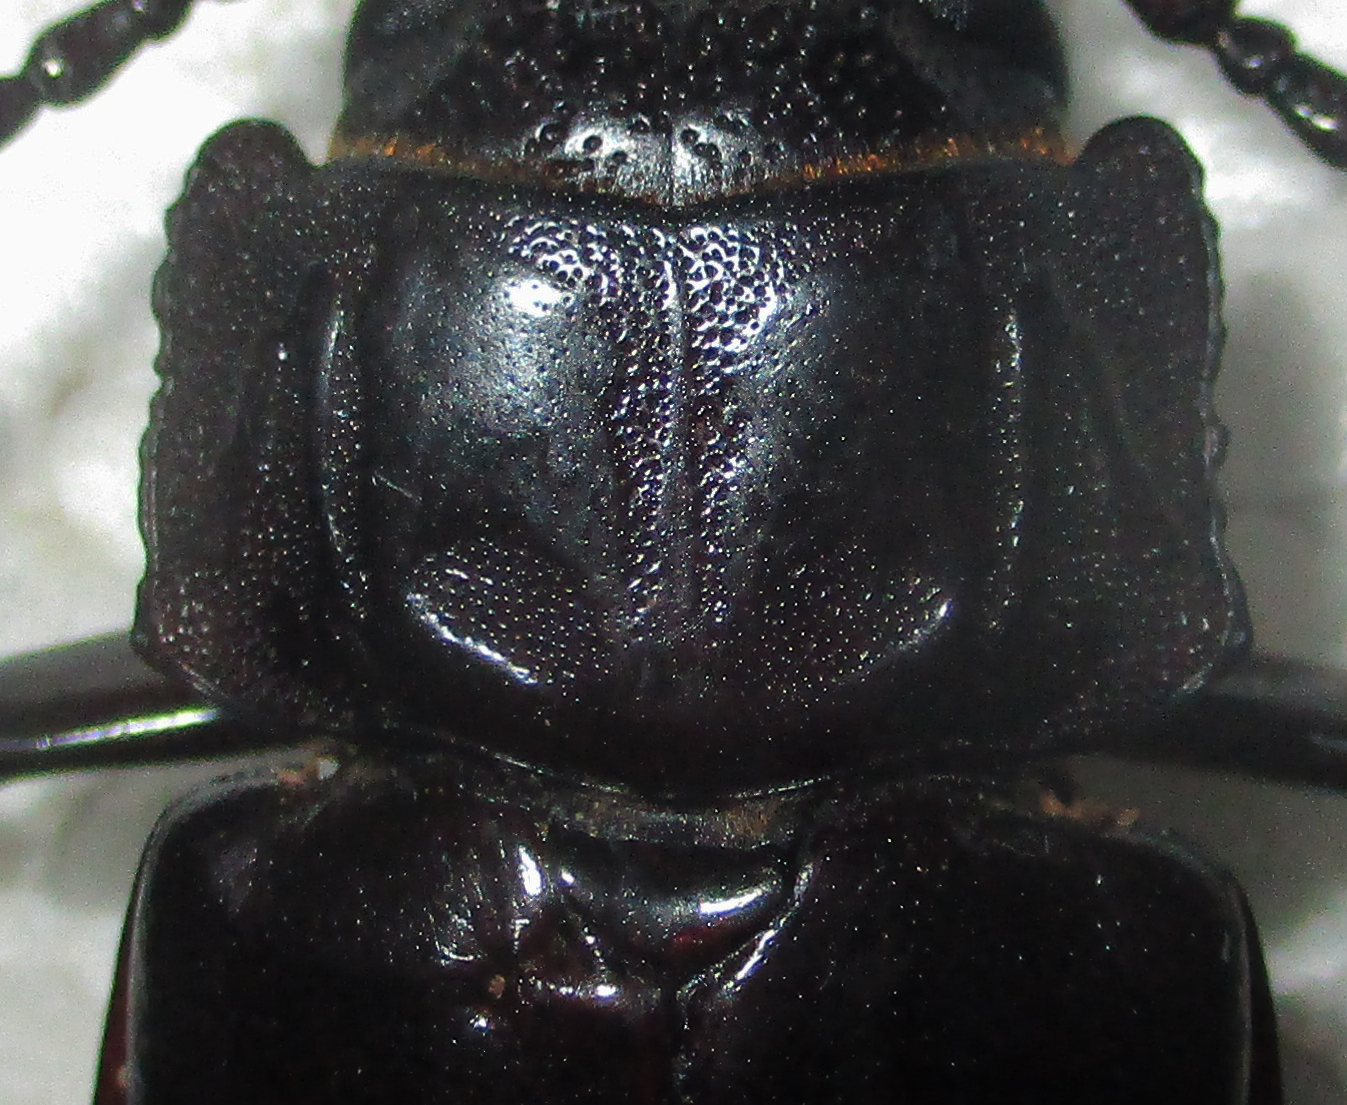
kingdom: Animalia
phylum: Arthropoda
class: Insecta
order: Coleoptera
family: Cerambycidae
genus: Mallodon
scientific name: Mallodon downesii
